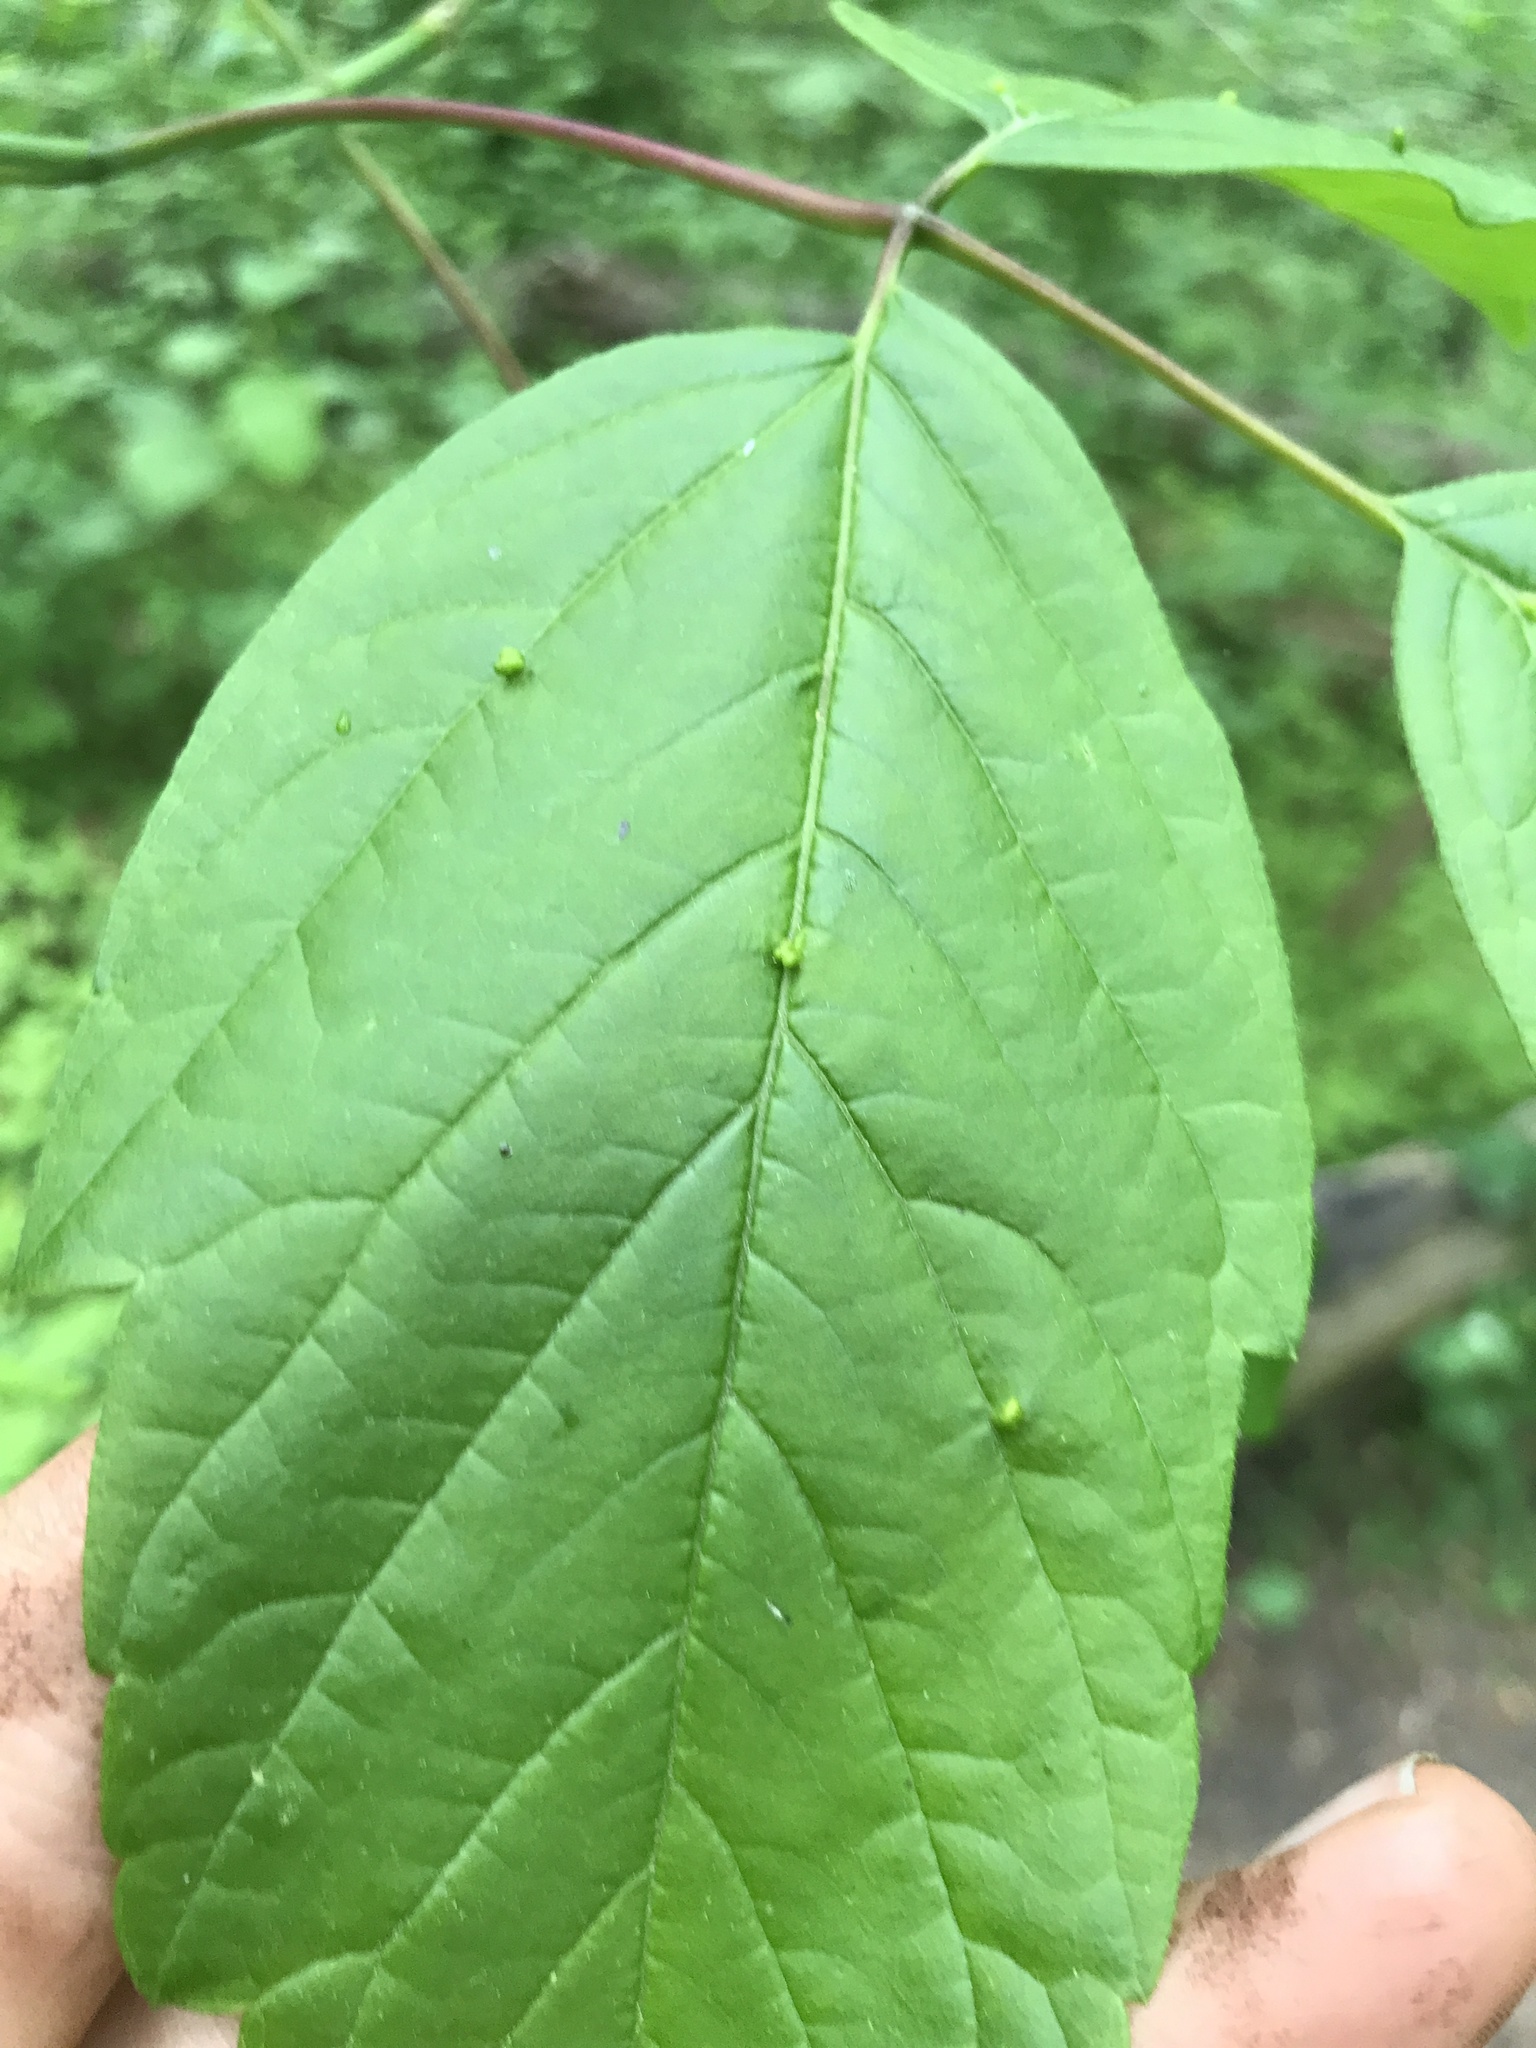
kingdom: Animalia
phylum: Arthropoda
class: Arachnida
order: Trombidiformes
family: Eriophyidae
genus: Aceria
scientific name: Aceria
